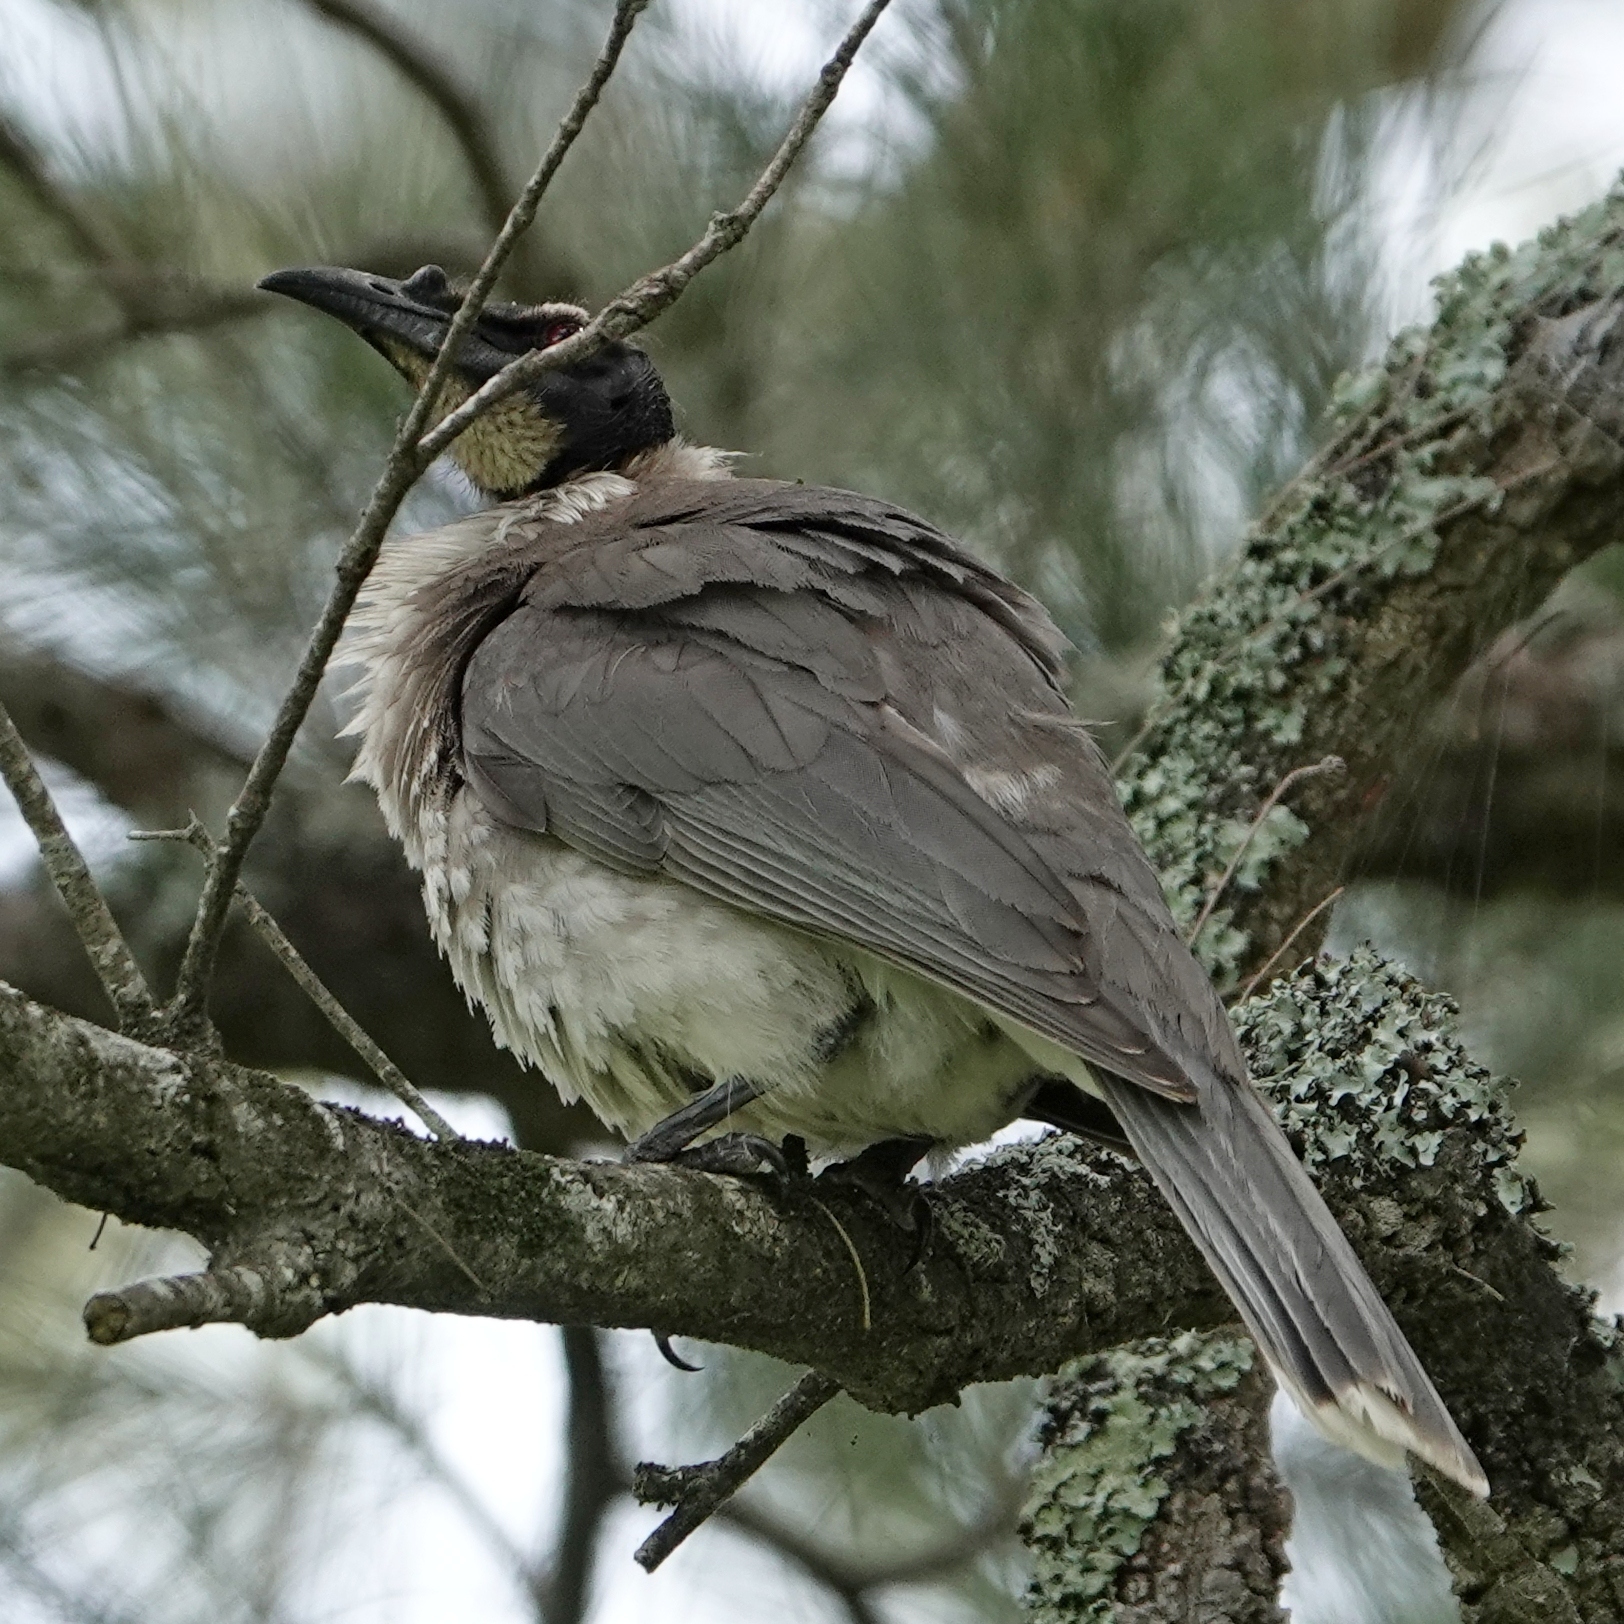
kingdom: Animalia
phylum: Chordata
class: Aves
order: Passeriformes
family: Meliphagidae
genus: Philemon
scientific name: Philemon corniculatus
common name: Noisy friarbird
